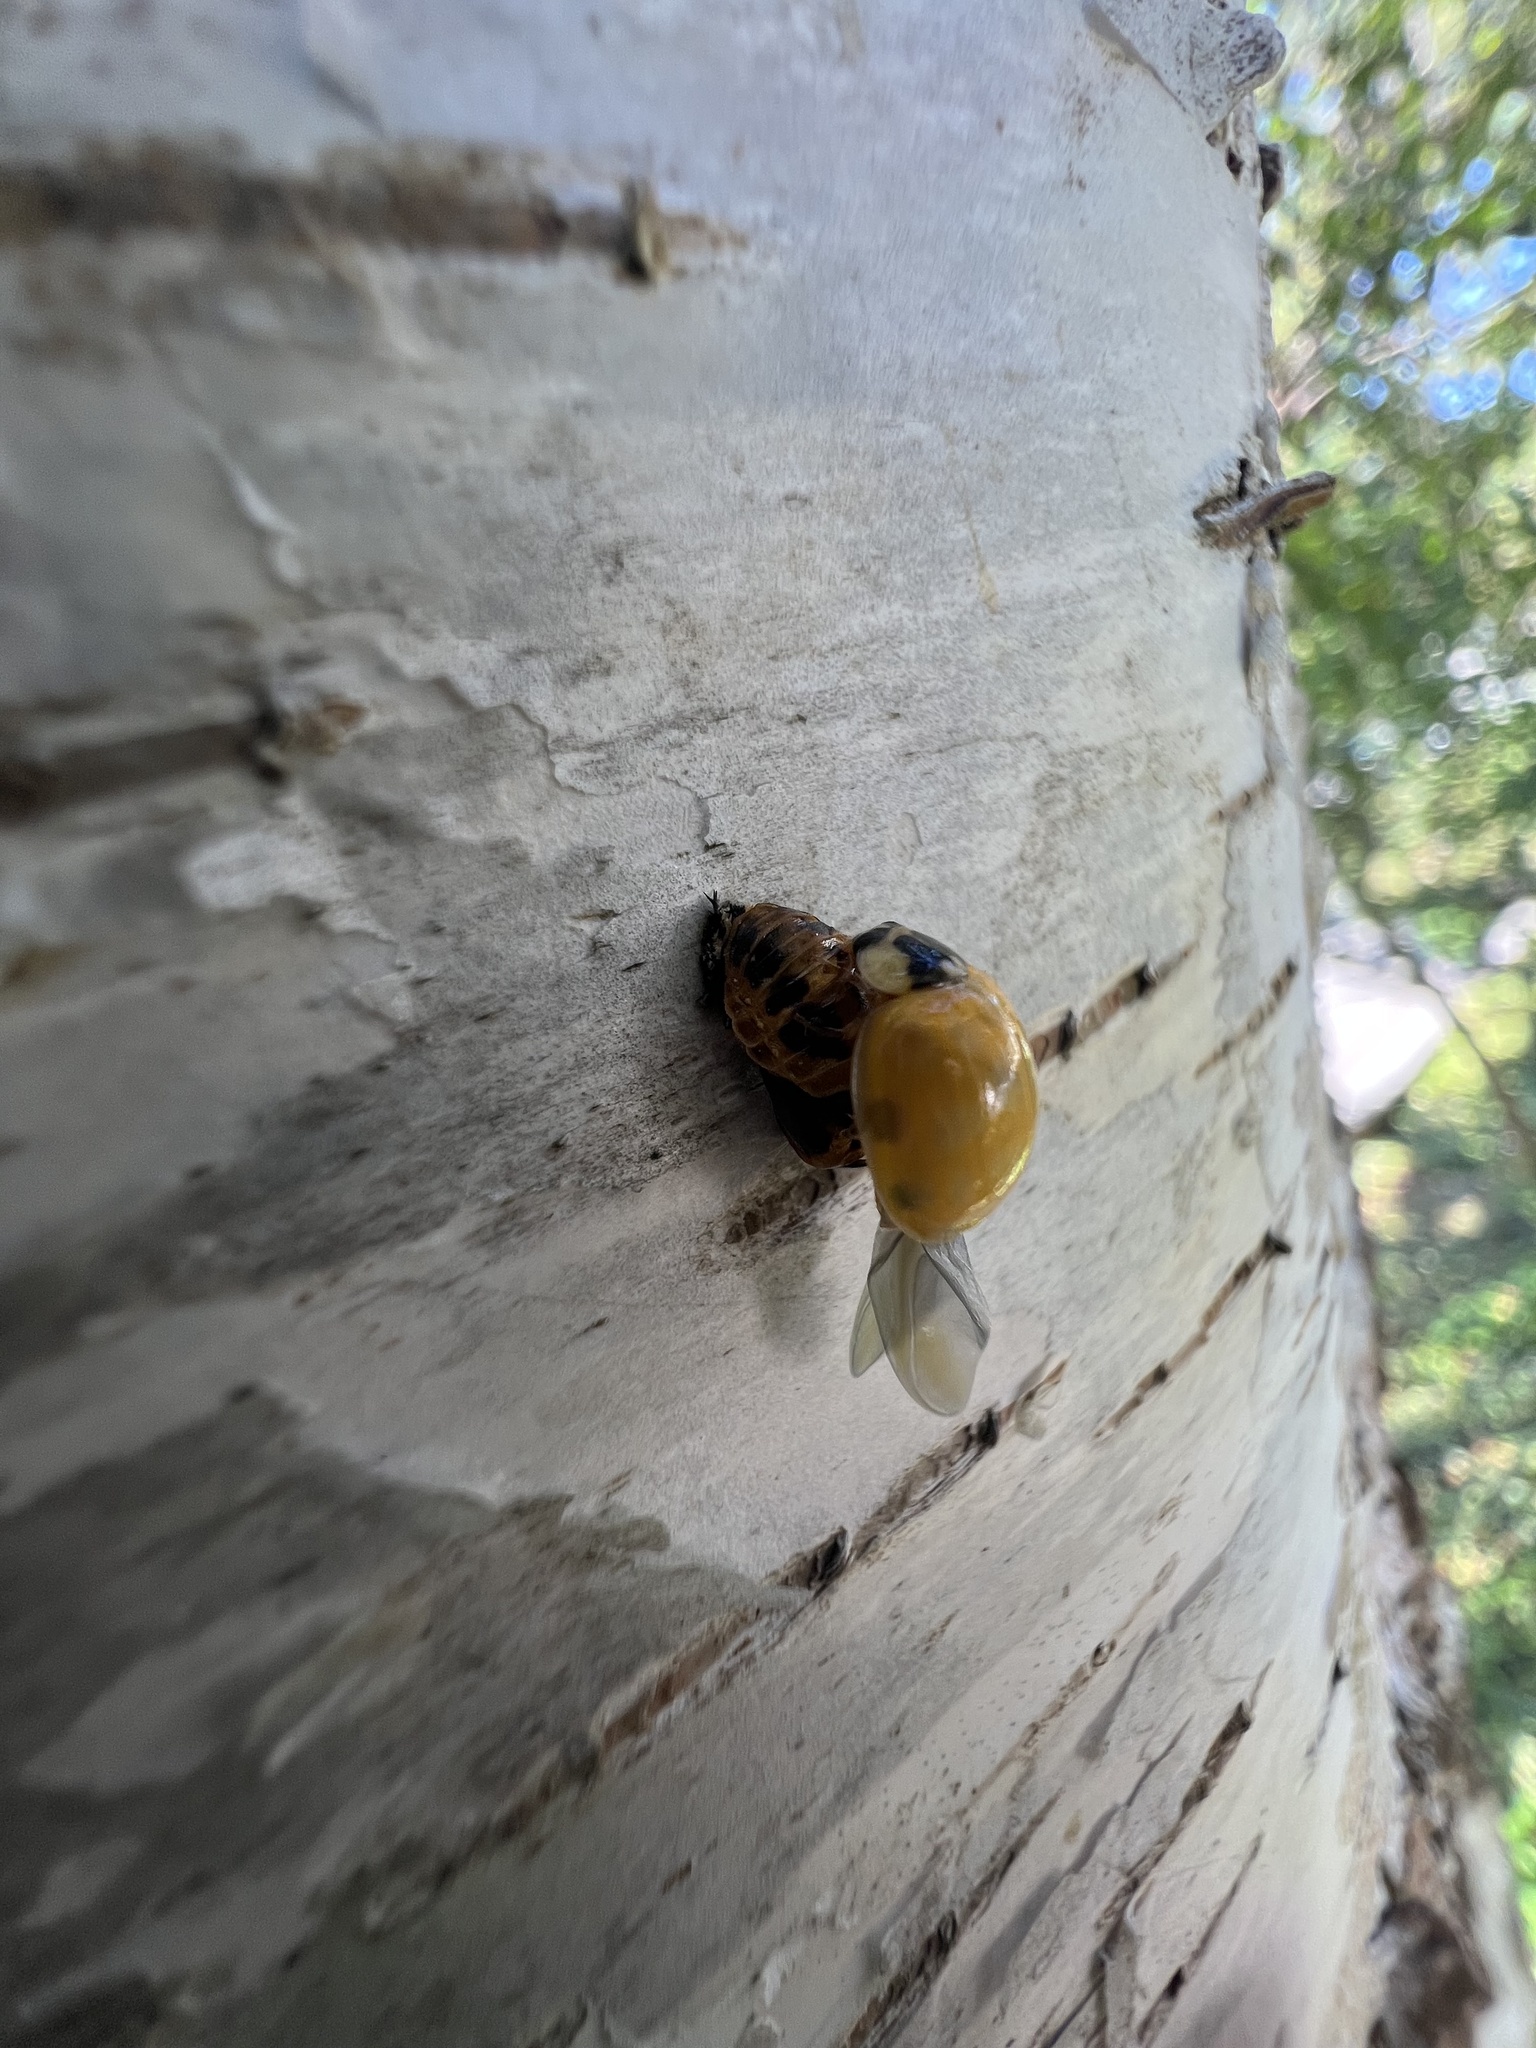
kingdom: Animalia
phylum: Arthropoda
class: Insecta
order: Coleoptera
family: Coccinellidae
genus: Harmonia
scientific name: Harmonia axyridis
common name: Harlequin ladybird
